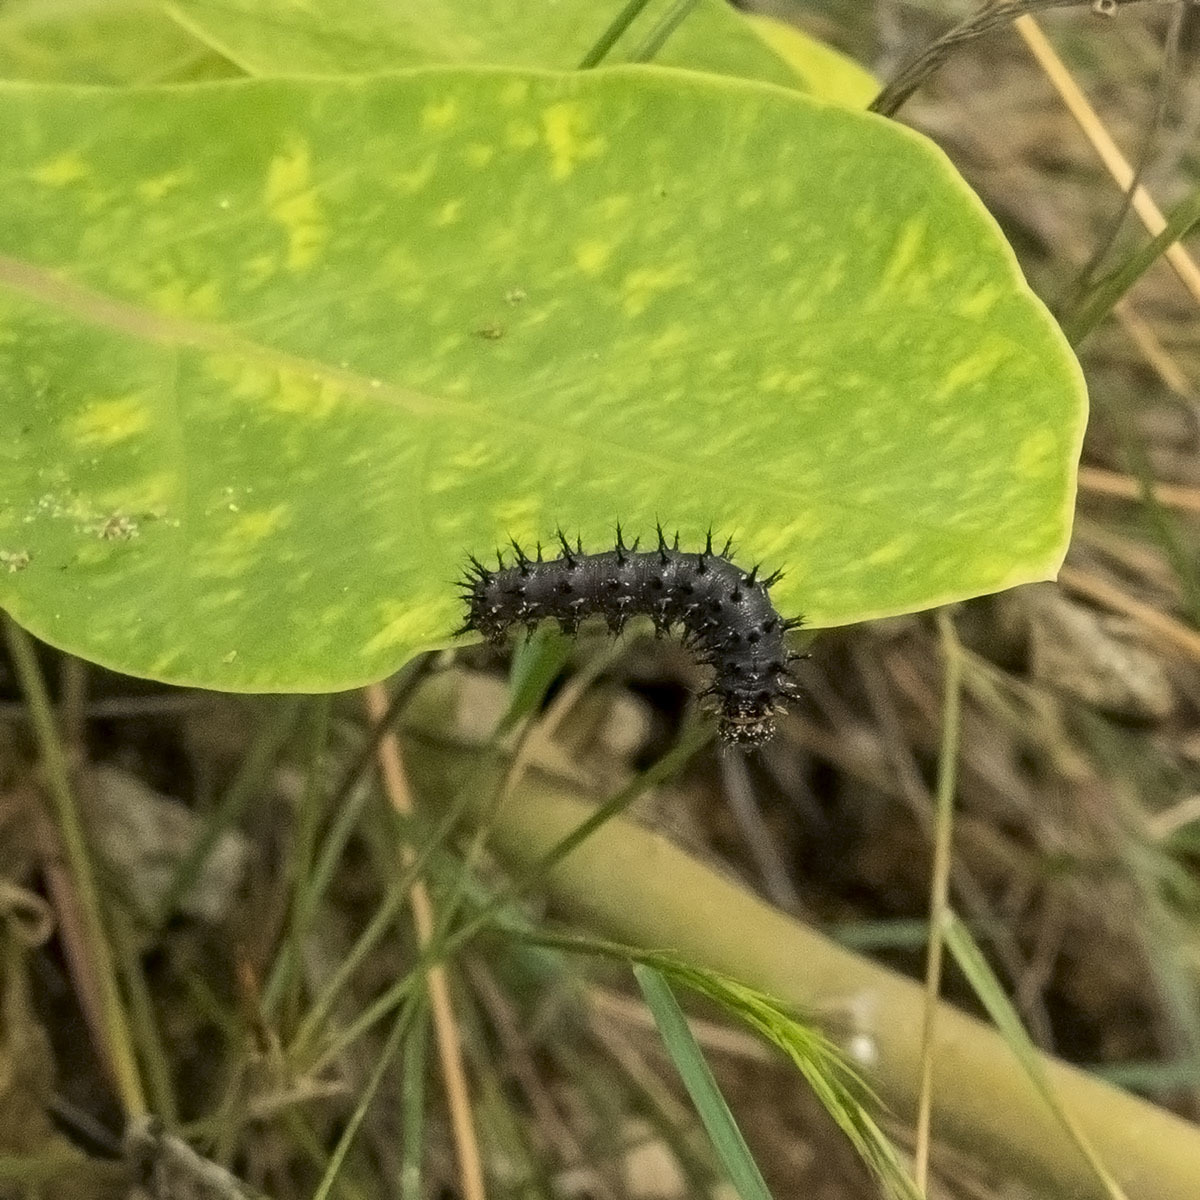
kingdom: Animalia
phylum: Arthropoda
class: Insecta
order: Lepidoptera
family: Nymphalidae
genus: Junonia
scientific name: Junonia lemonias
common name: Lemon pansy
